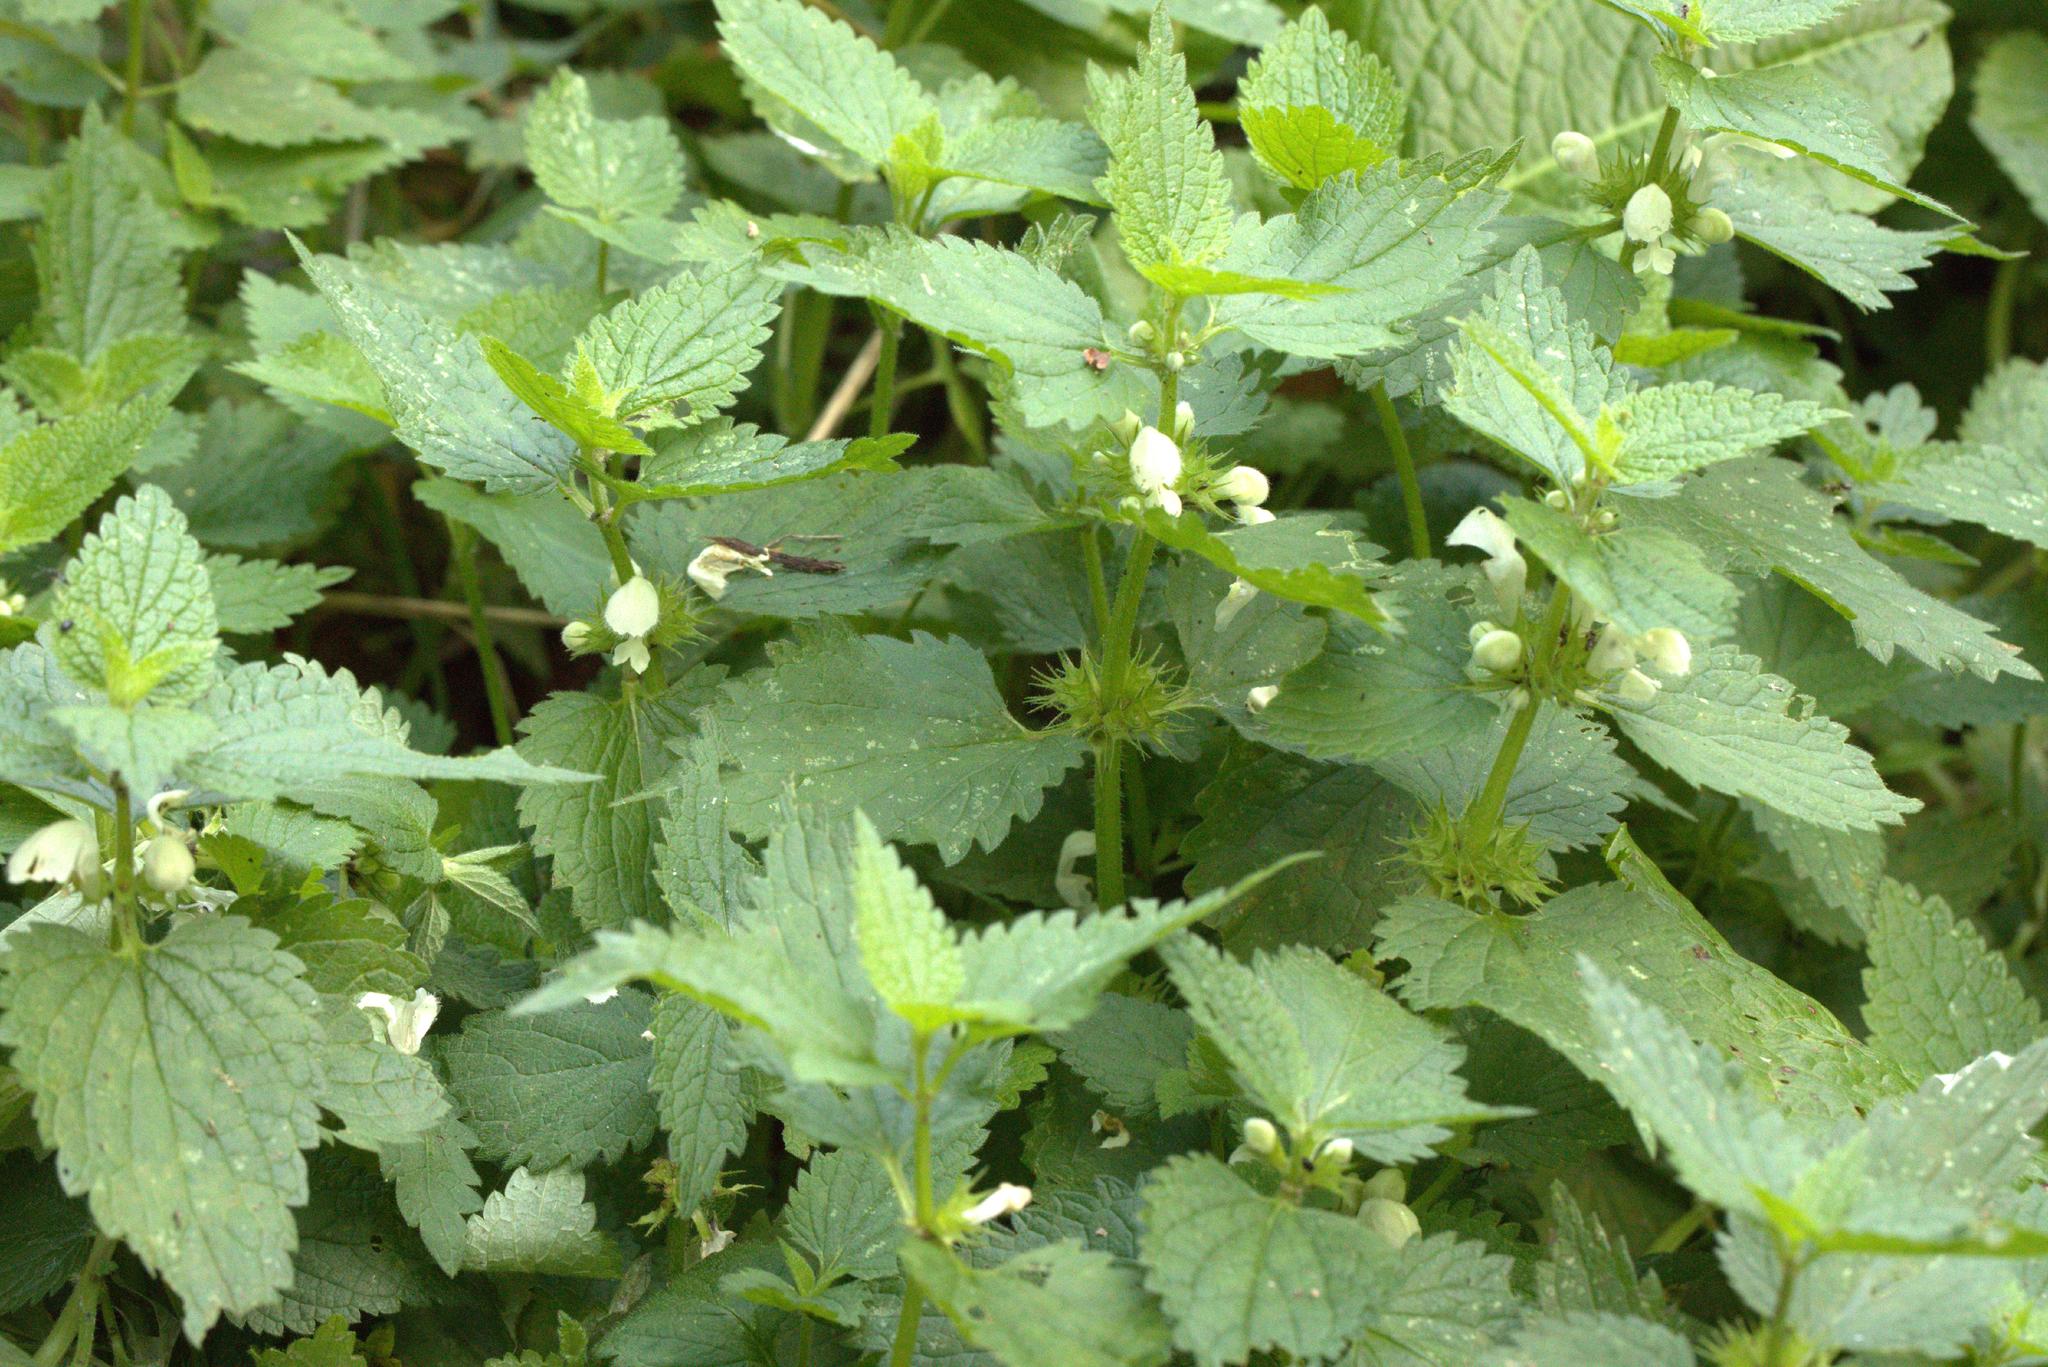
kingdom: Plantae
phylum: Tracheophyta
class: Magnoliopsida
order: Lamiales
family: Lamiaceae
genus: Lamium
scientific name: Lamium album
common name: White dead-nettle
